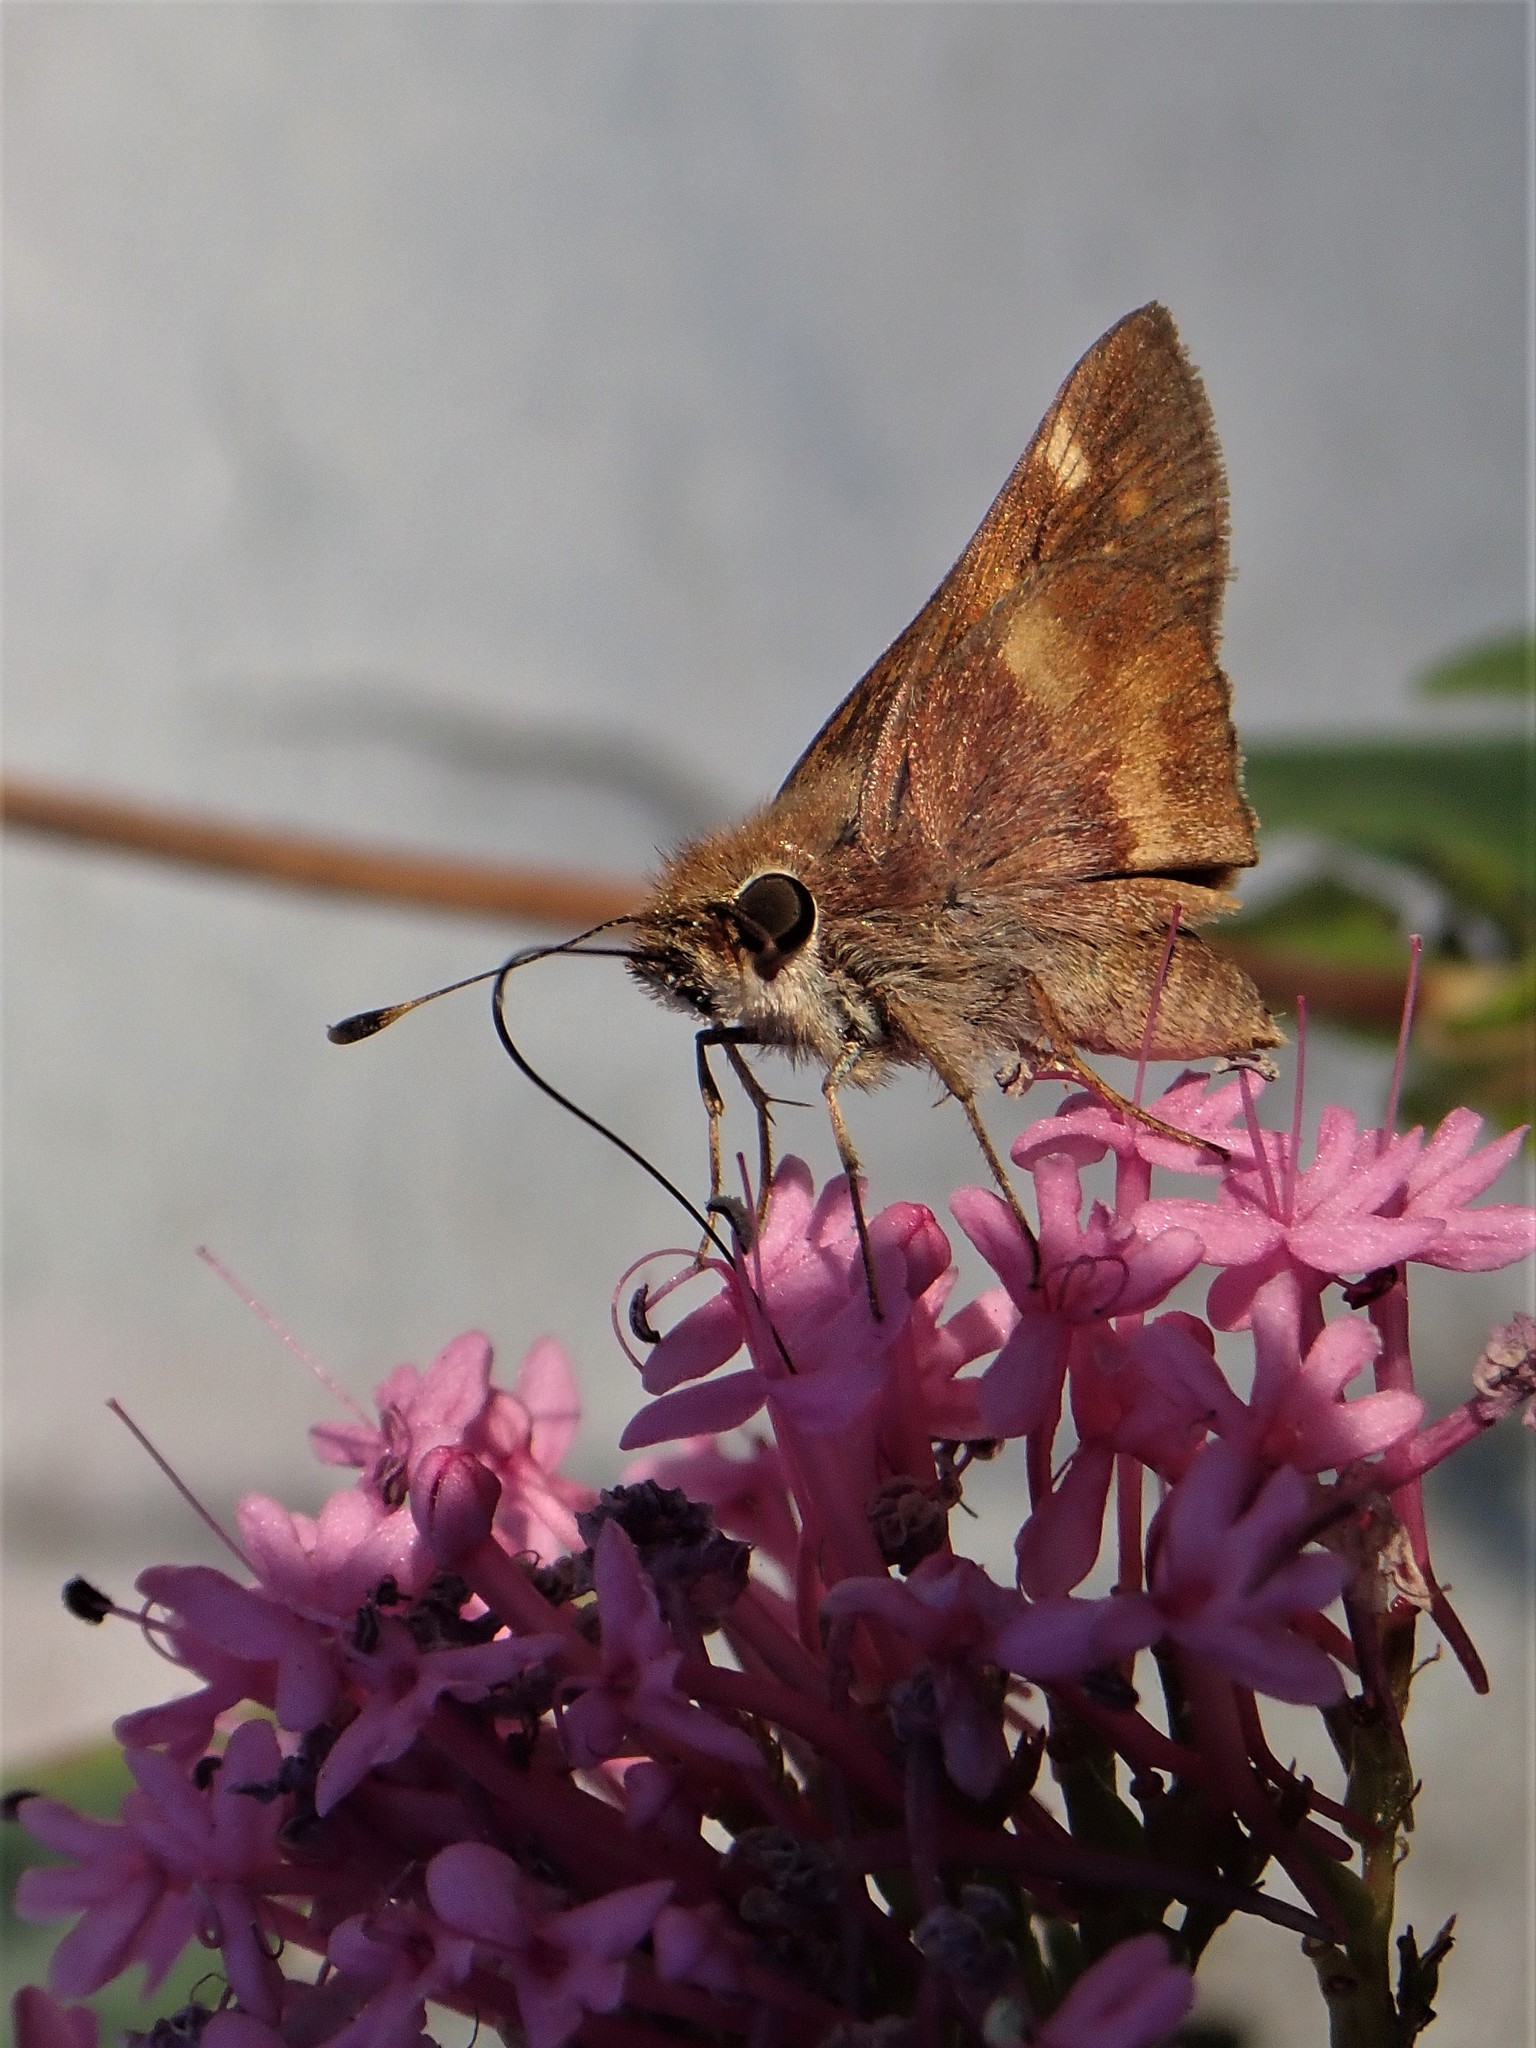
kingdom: Animalia
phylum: Arthropoda
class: Insecta
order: Lepidoptera
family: Hesperiidae
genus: Lon
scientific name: Lon melane
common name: Umber skipper
